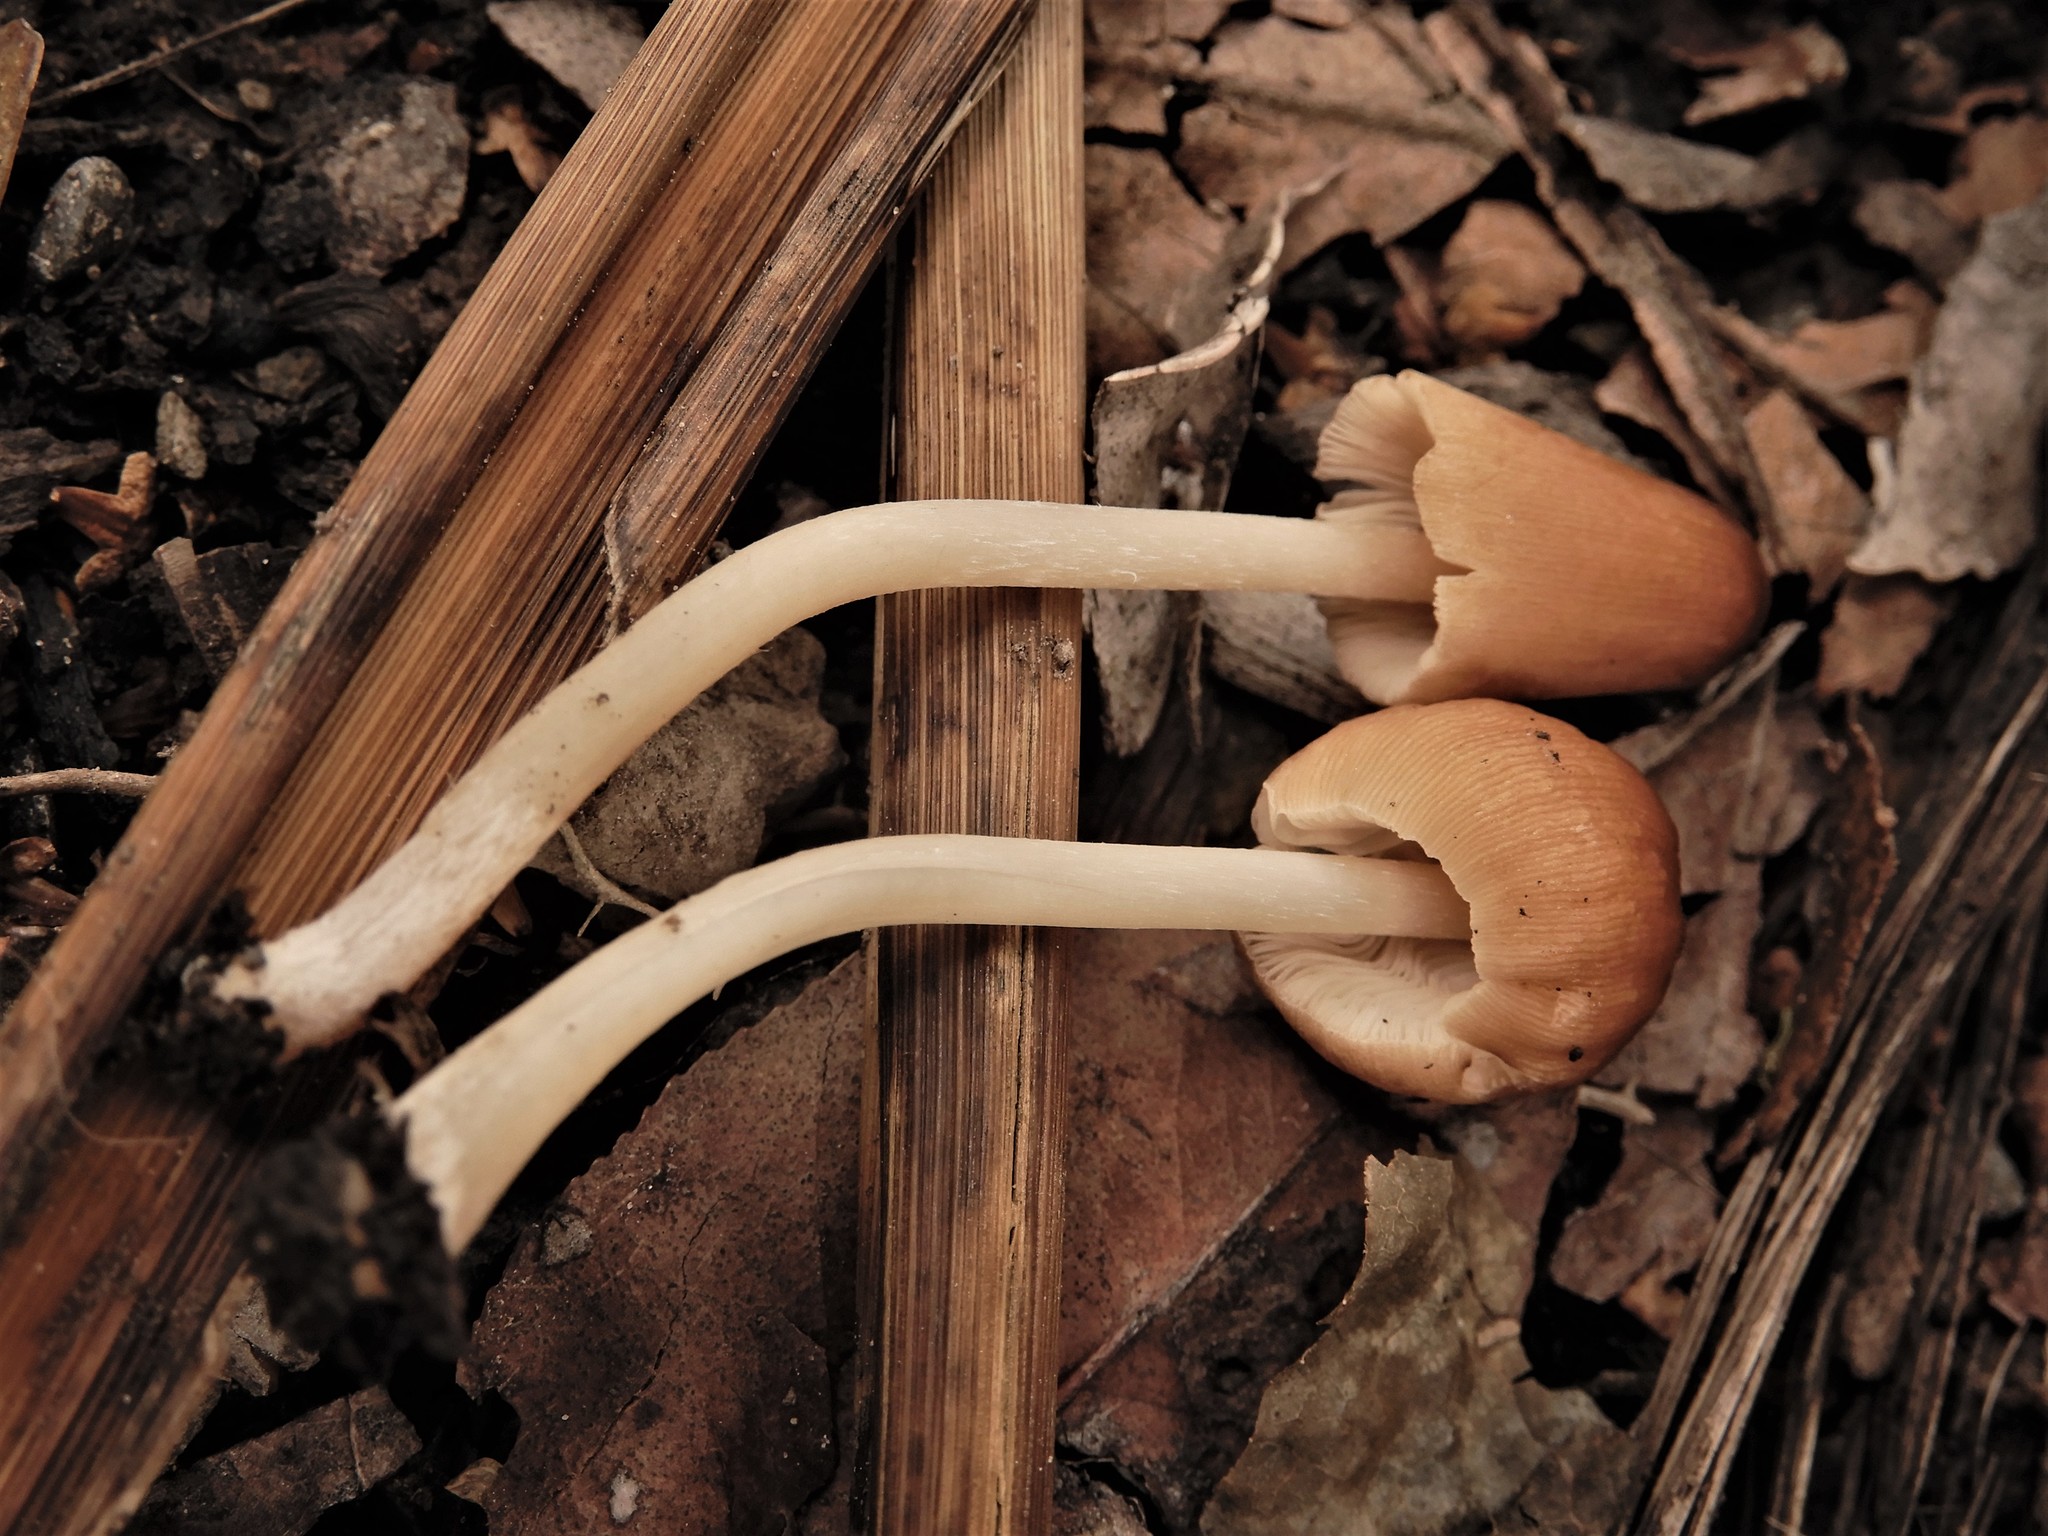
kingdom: Fungi
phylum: Basidiomycota
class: Agaricomycetes
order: Agaricales
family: Psathyrellaceae
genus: Parasola
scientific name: Parasola auricoma
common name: Goldenhaired inkcap
